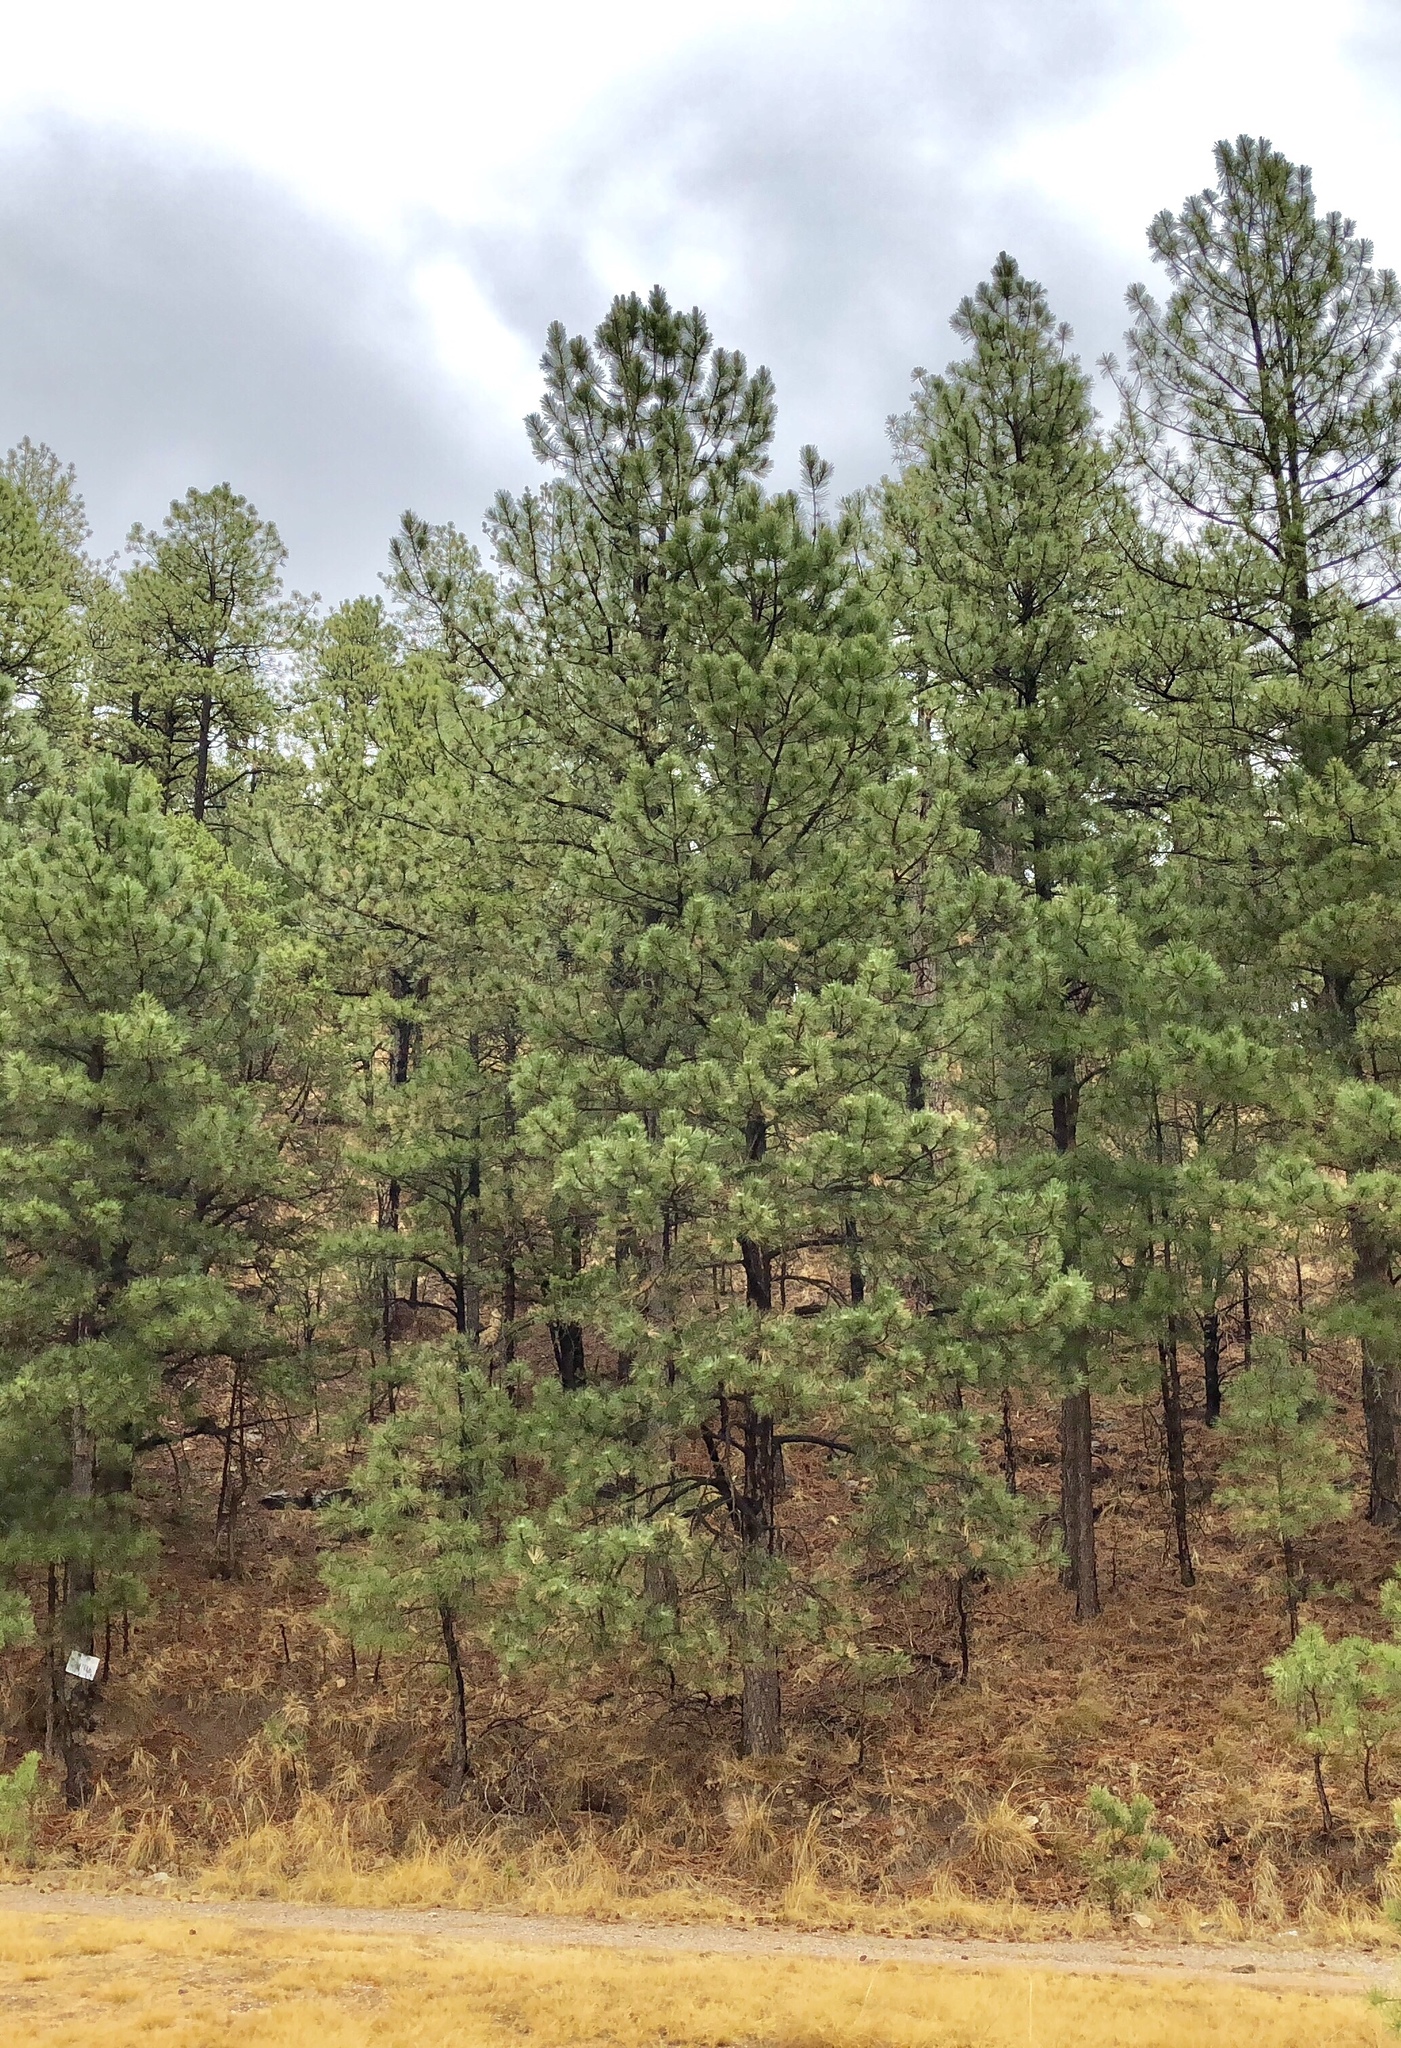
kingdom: Plantae
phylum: Tracheophyta
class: Pinopsida
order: Pinales
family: Pinaceae
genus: Pinus
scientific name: Pinus ponderosa
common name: Western yellow-pine
